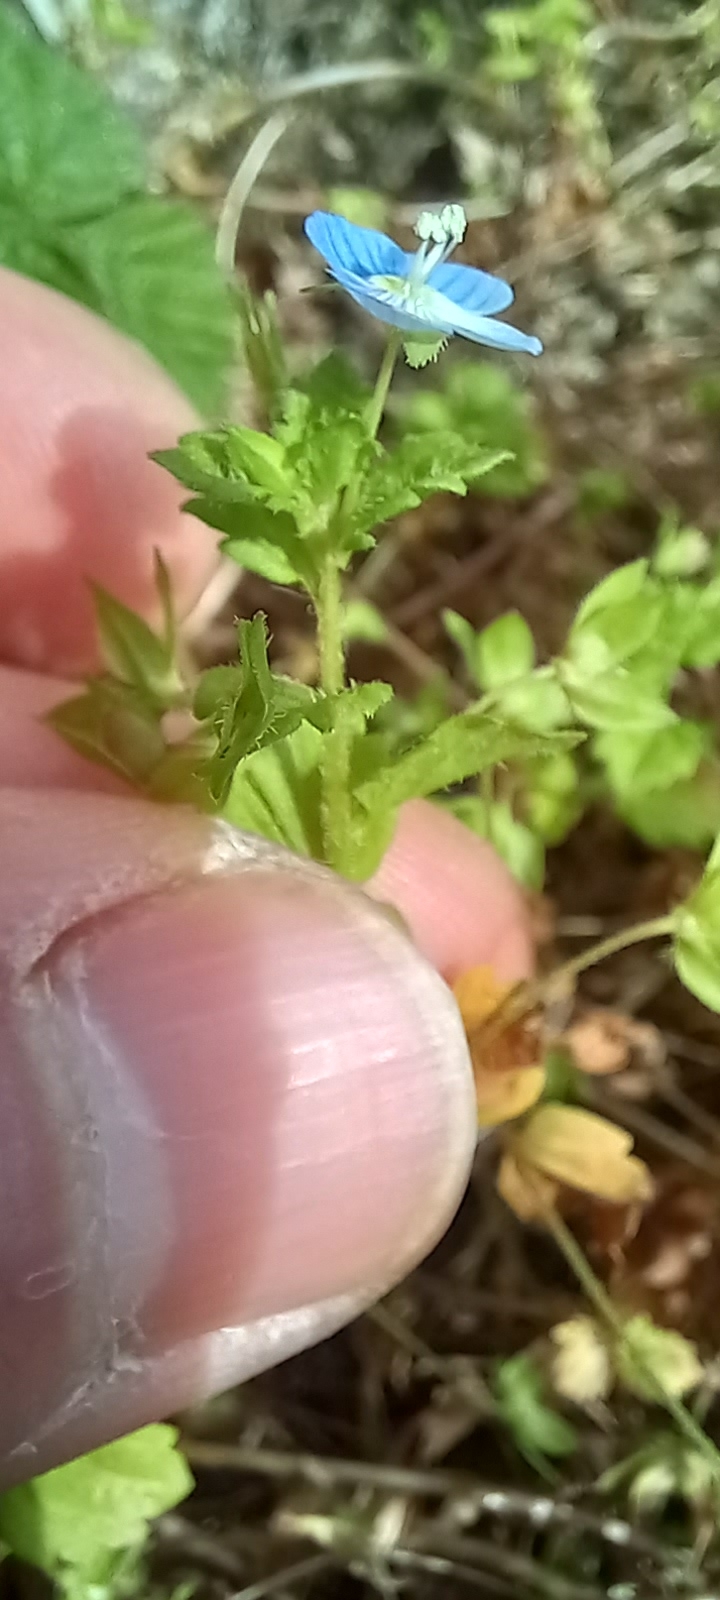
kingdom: Plantae
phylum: Tracheophyta
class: Magnoliopsida
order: Lamiales
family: Plantaginaceae
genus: Veronica
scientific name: Veronica persica
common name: Common field-speedwell
